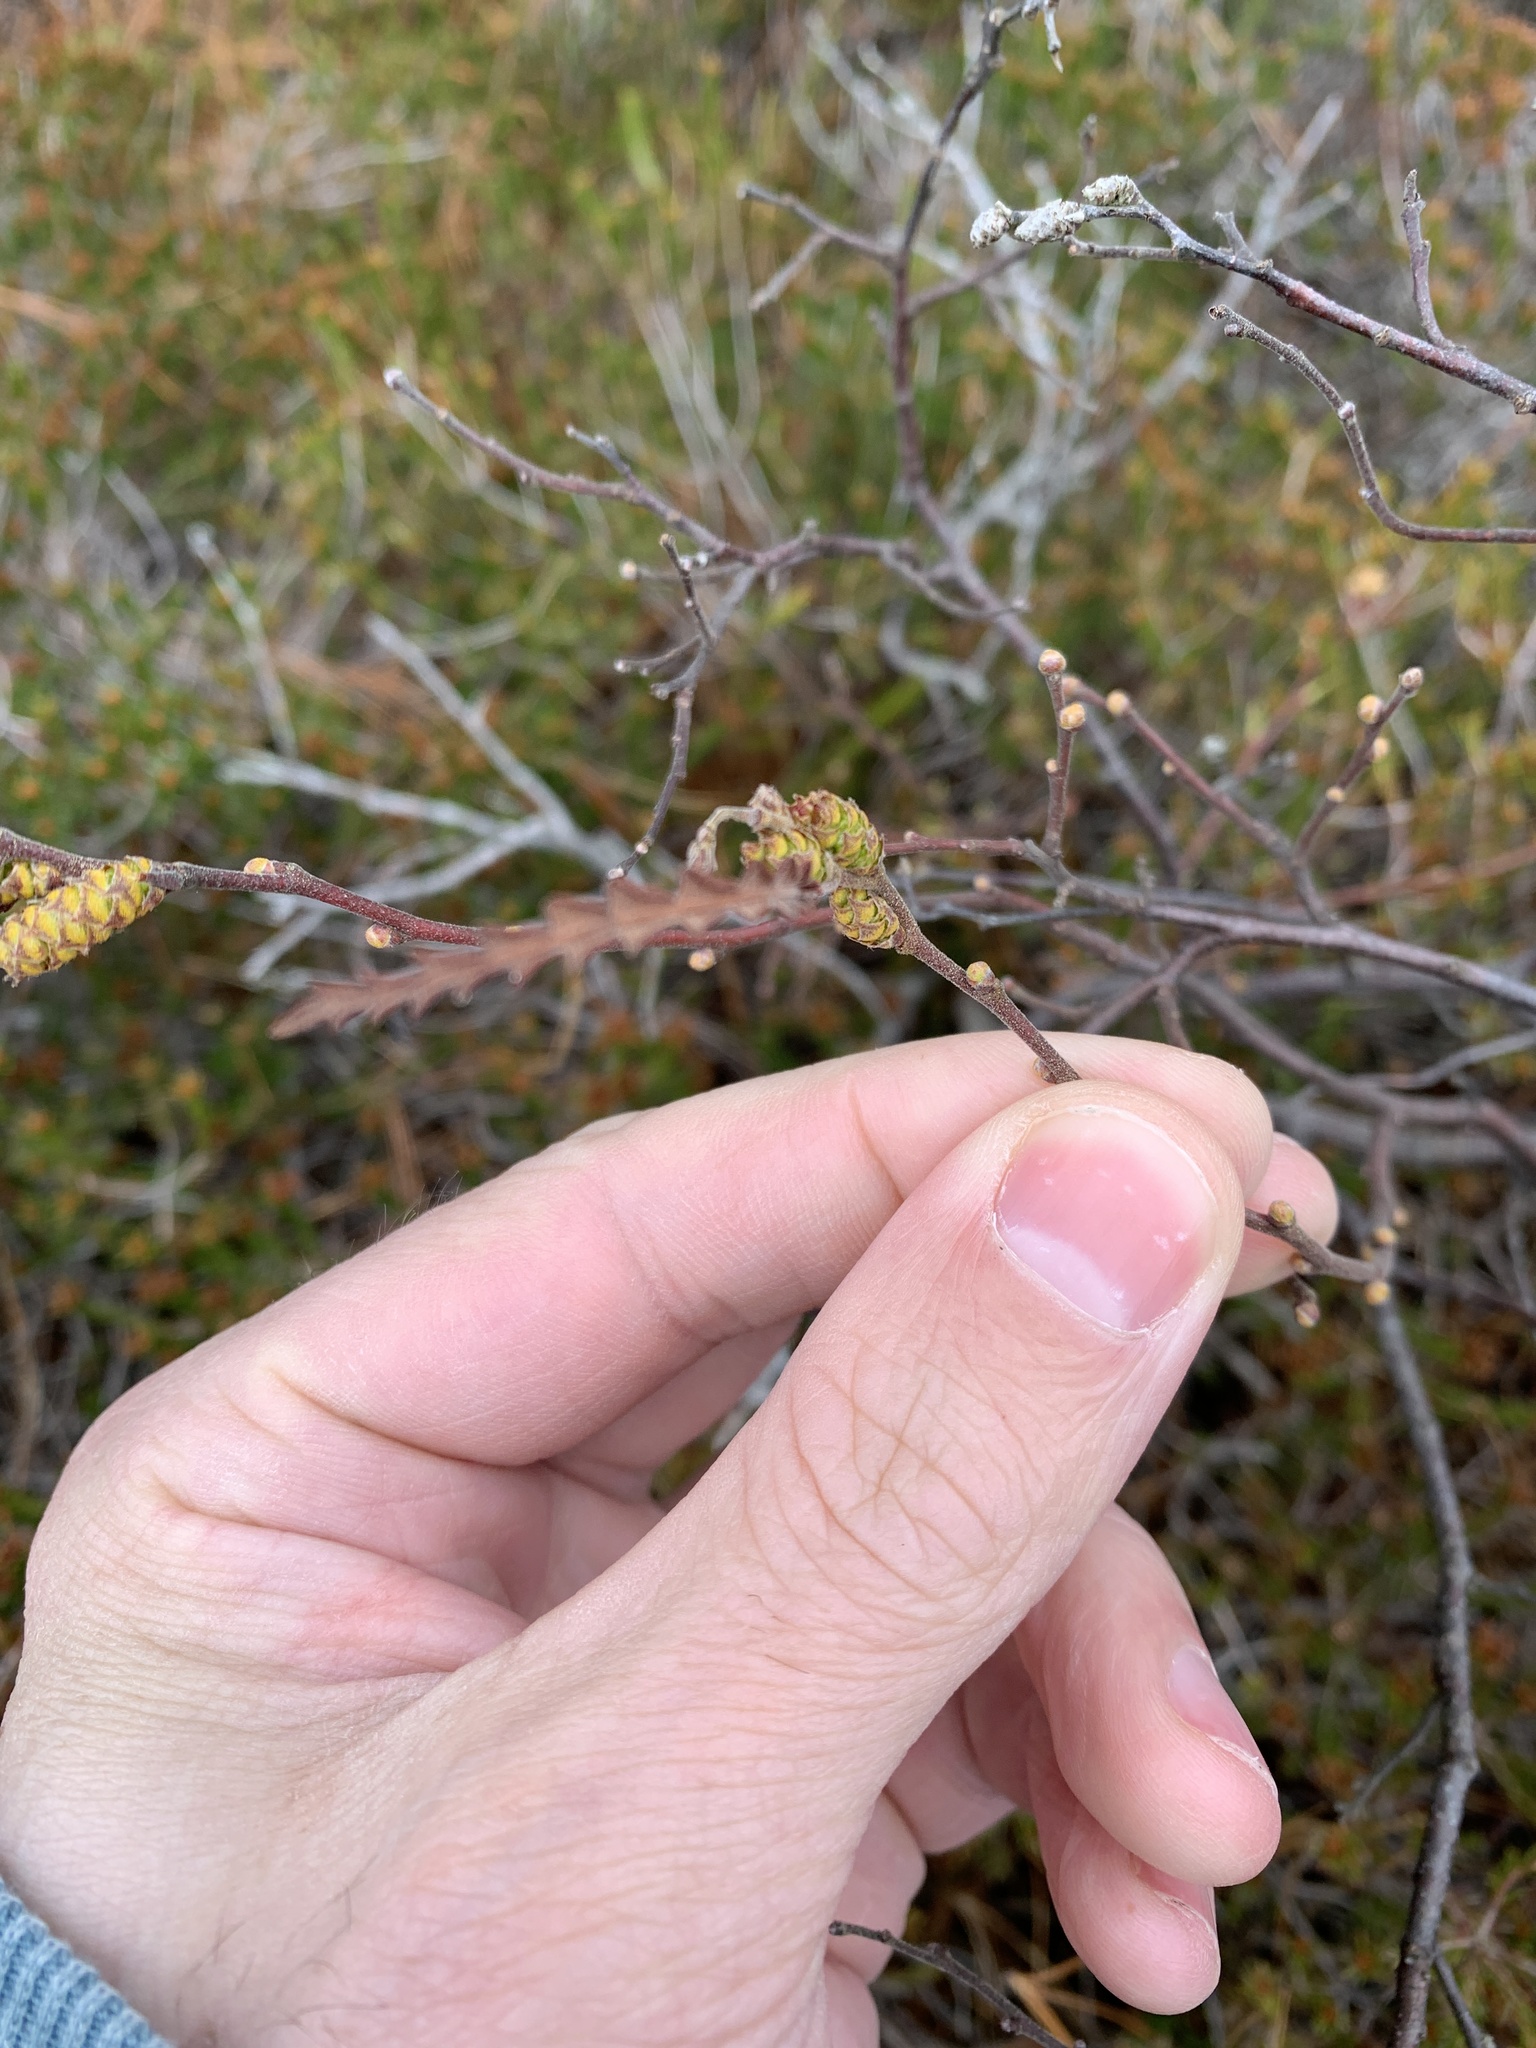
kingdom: Plantae
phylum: Tracheophyta
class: Magnoliopsida
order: Fagales
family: Myricaceae
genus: Comptonia
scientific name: Comptonia peregrina
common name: Sweet-fern
